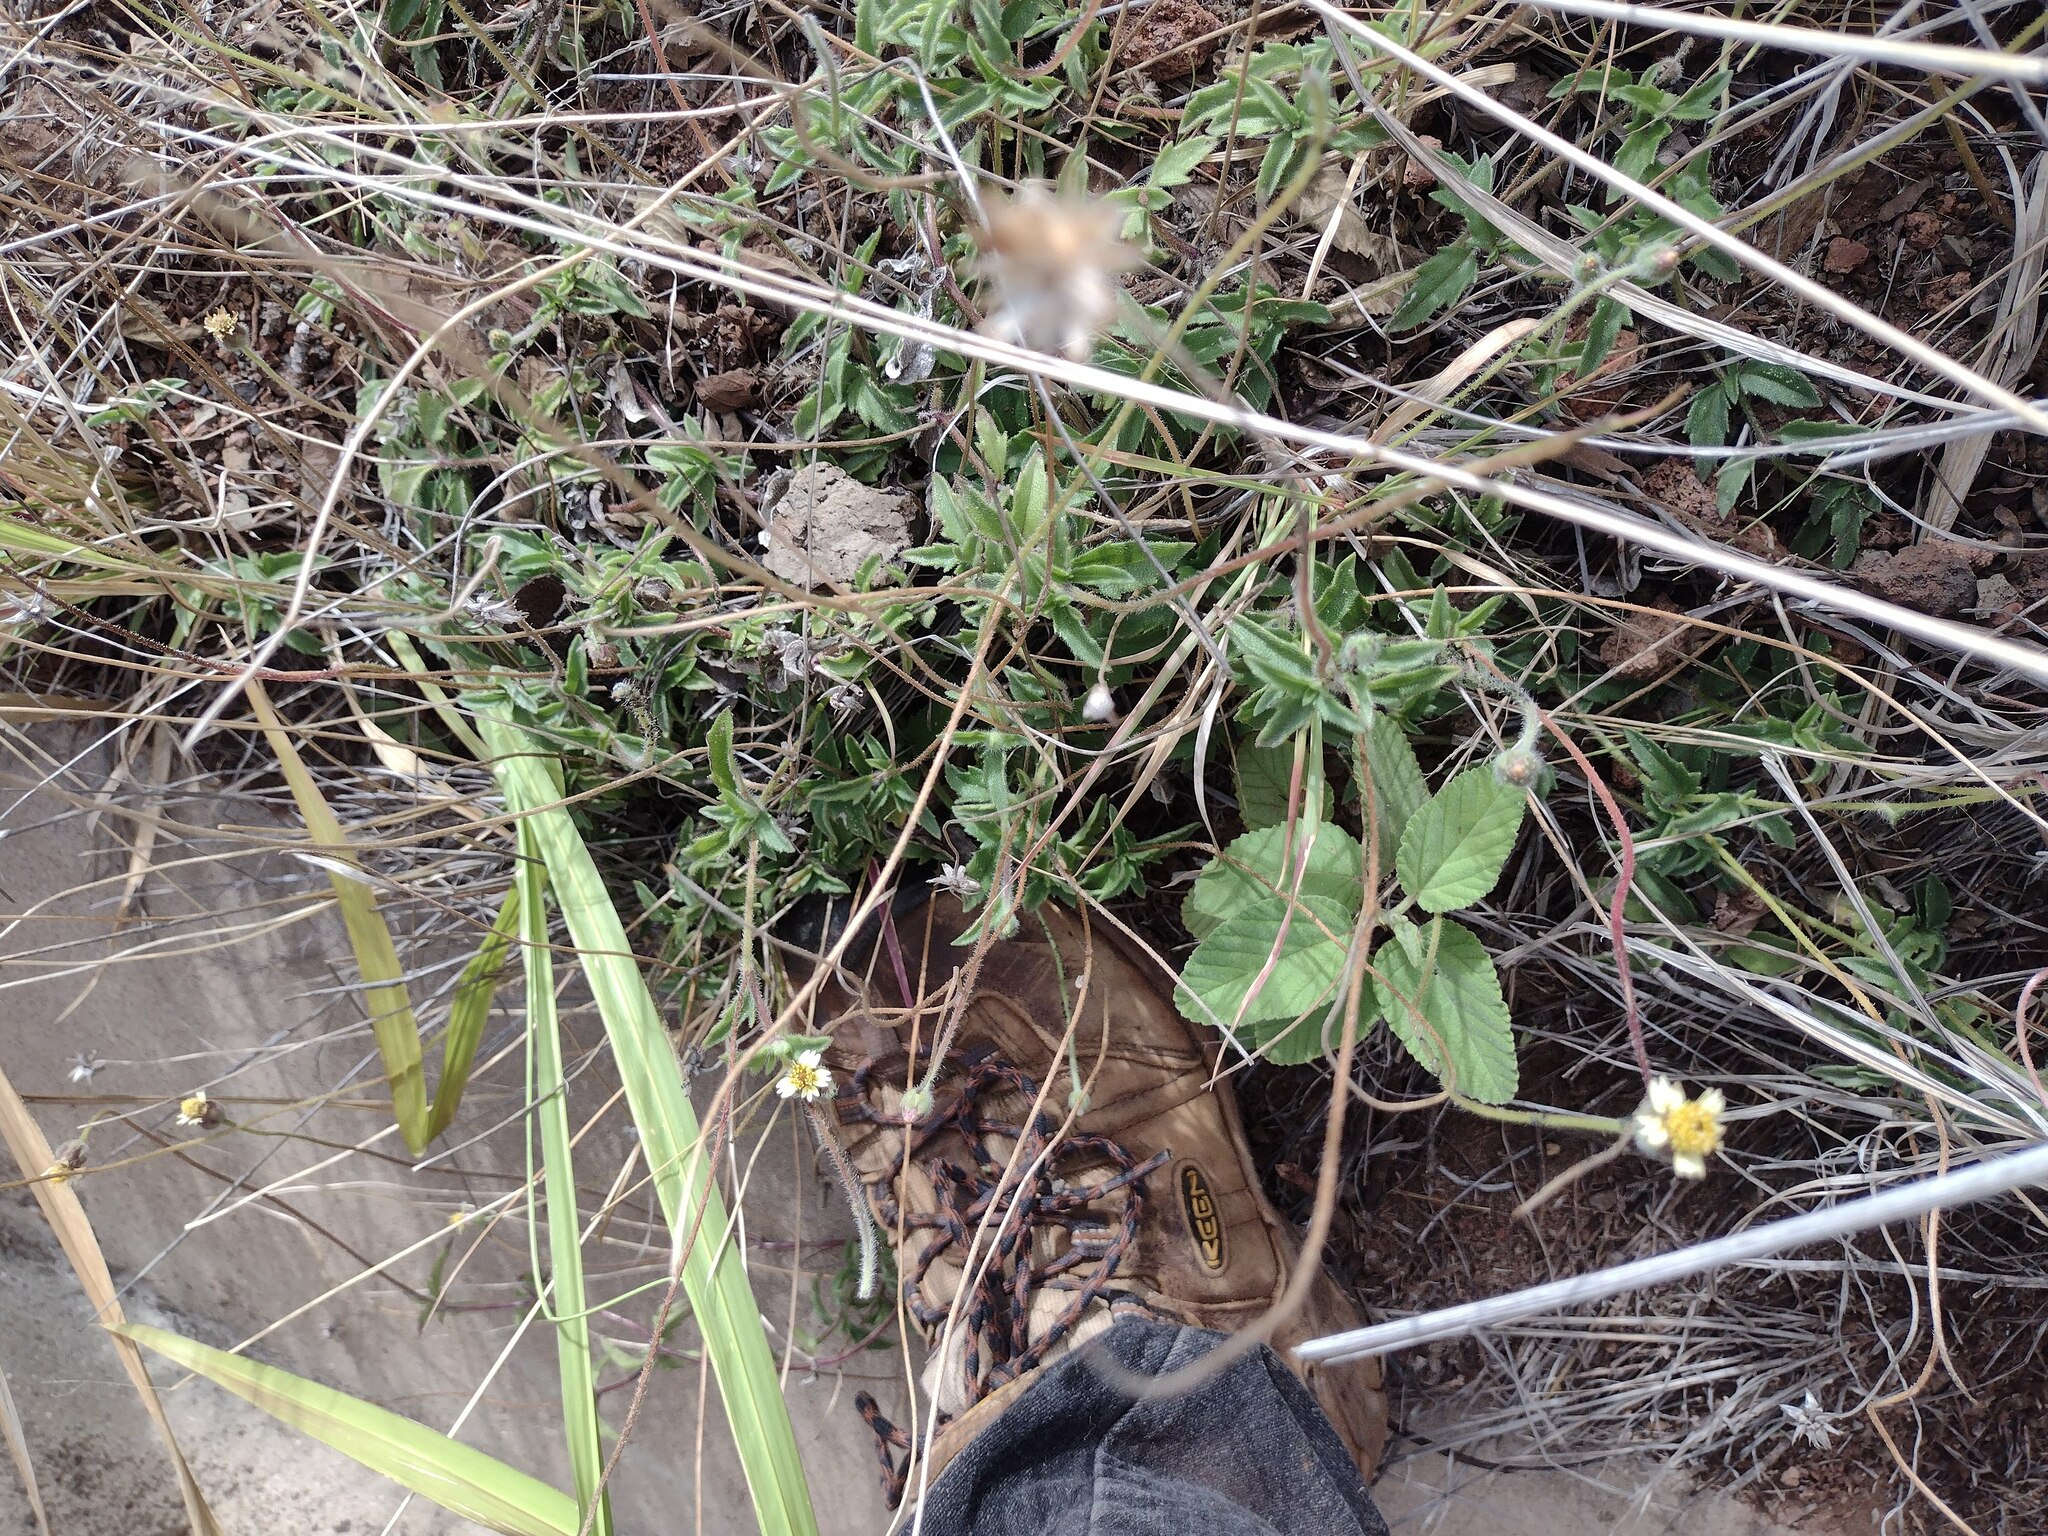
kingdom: Plantae
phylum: Tracheophyta
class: Magnoliopsida
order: Asterales
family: Asteraceae
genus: Tridax
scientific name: Tridax procumbens
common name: Coatbuttons
